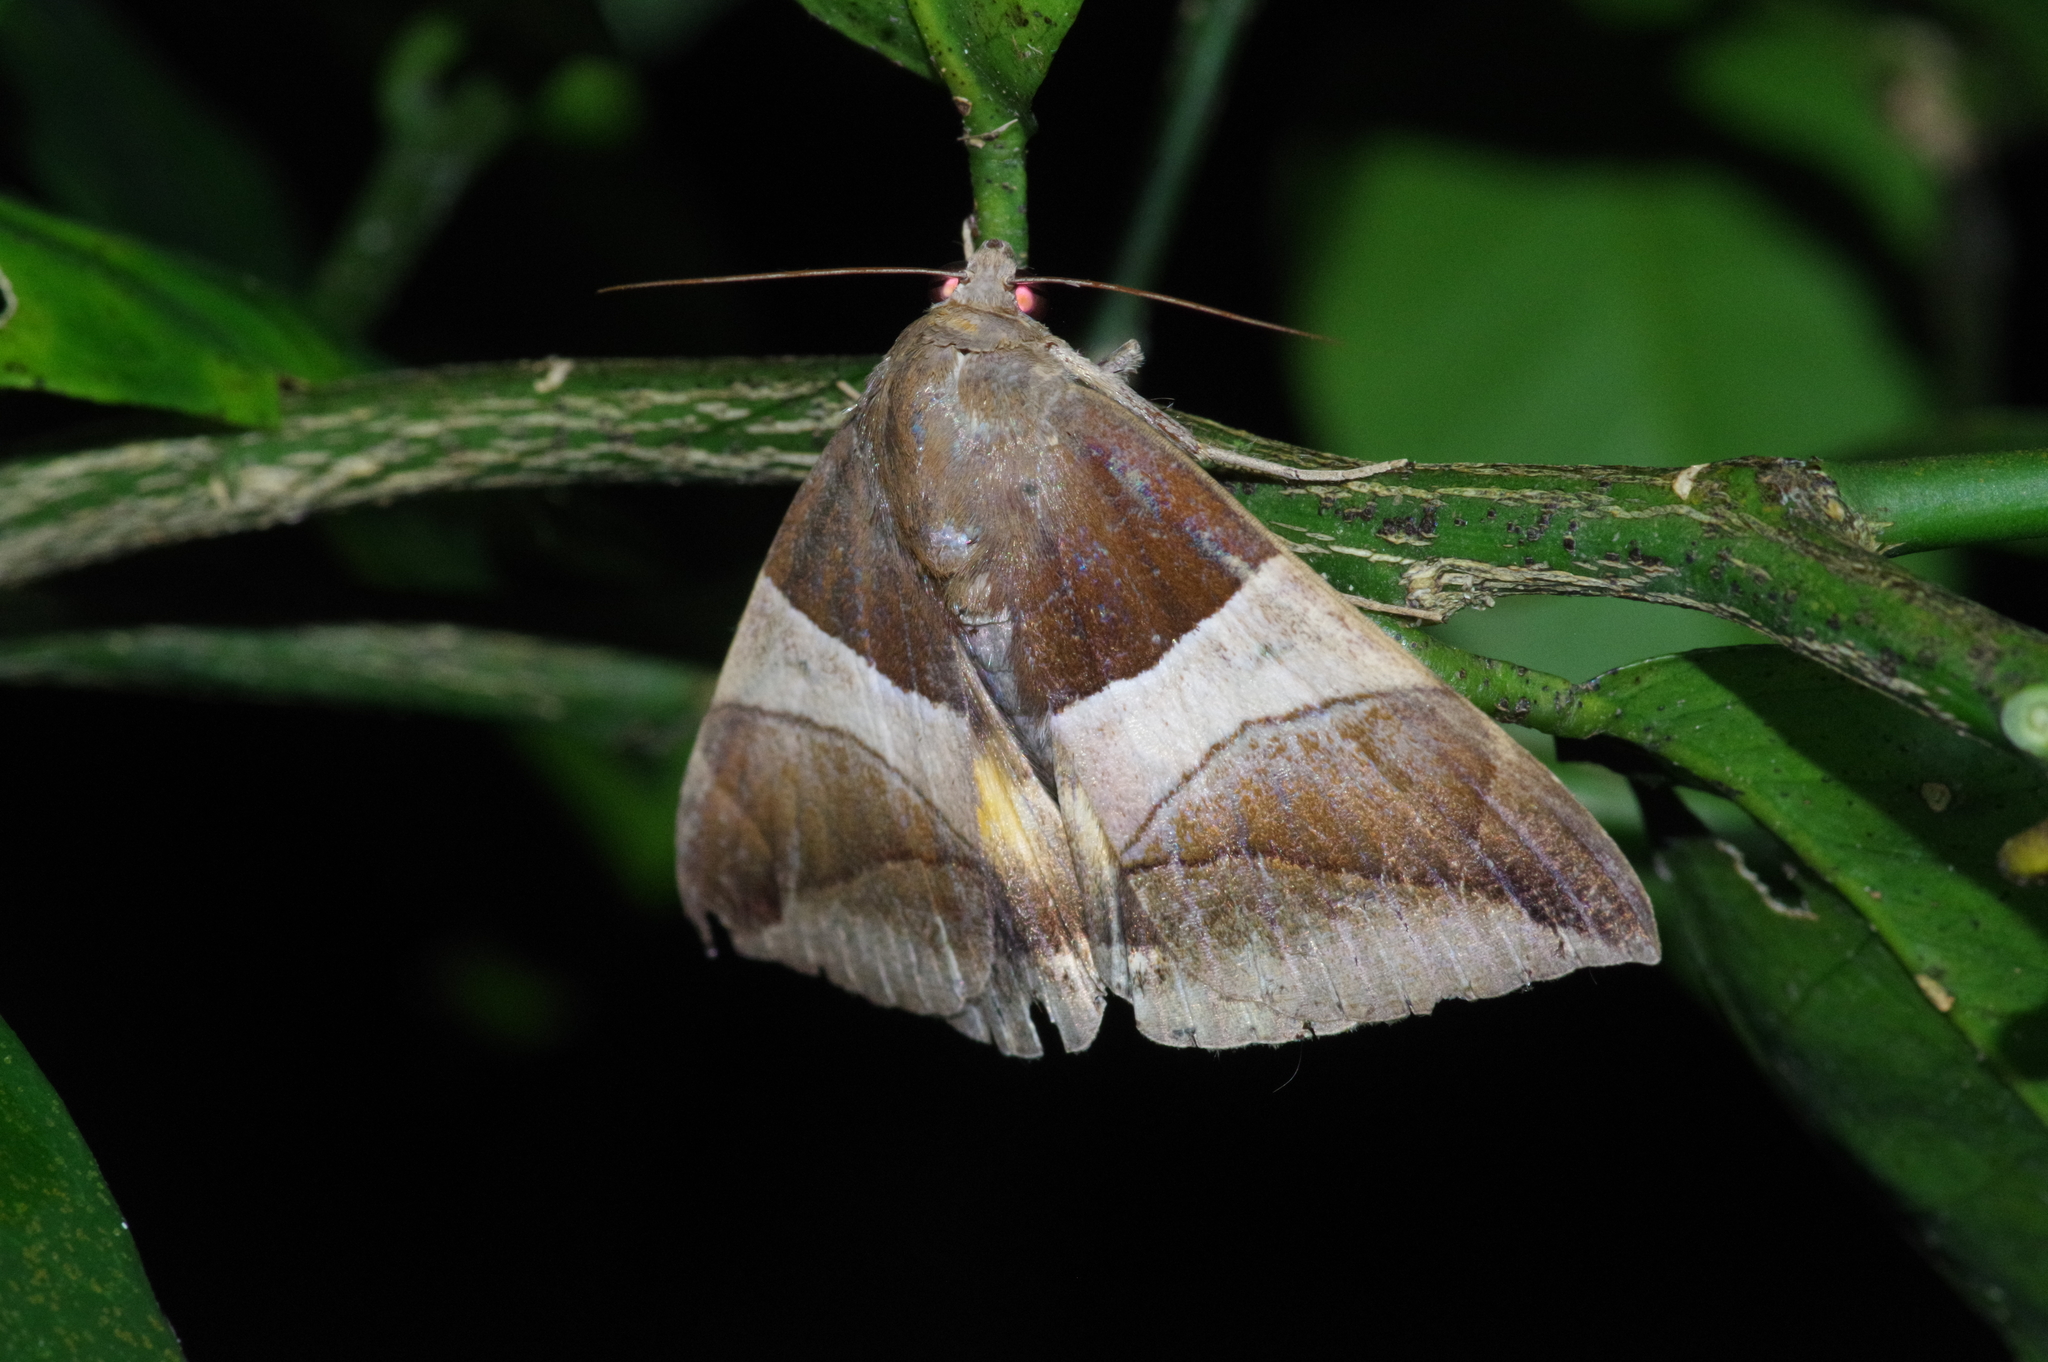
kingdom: Animalia
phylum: Arthropoda
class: Insecta
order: Lepidoptera
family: Erebidae
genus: Bastilla
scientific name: Bastilla fulvotaenia
